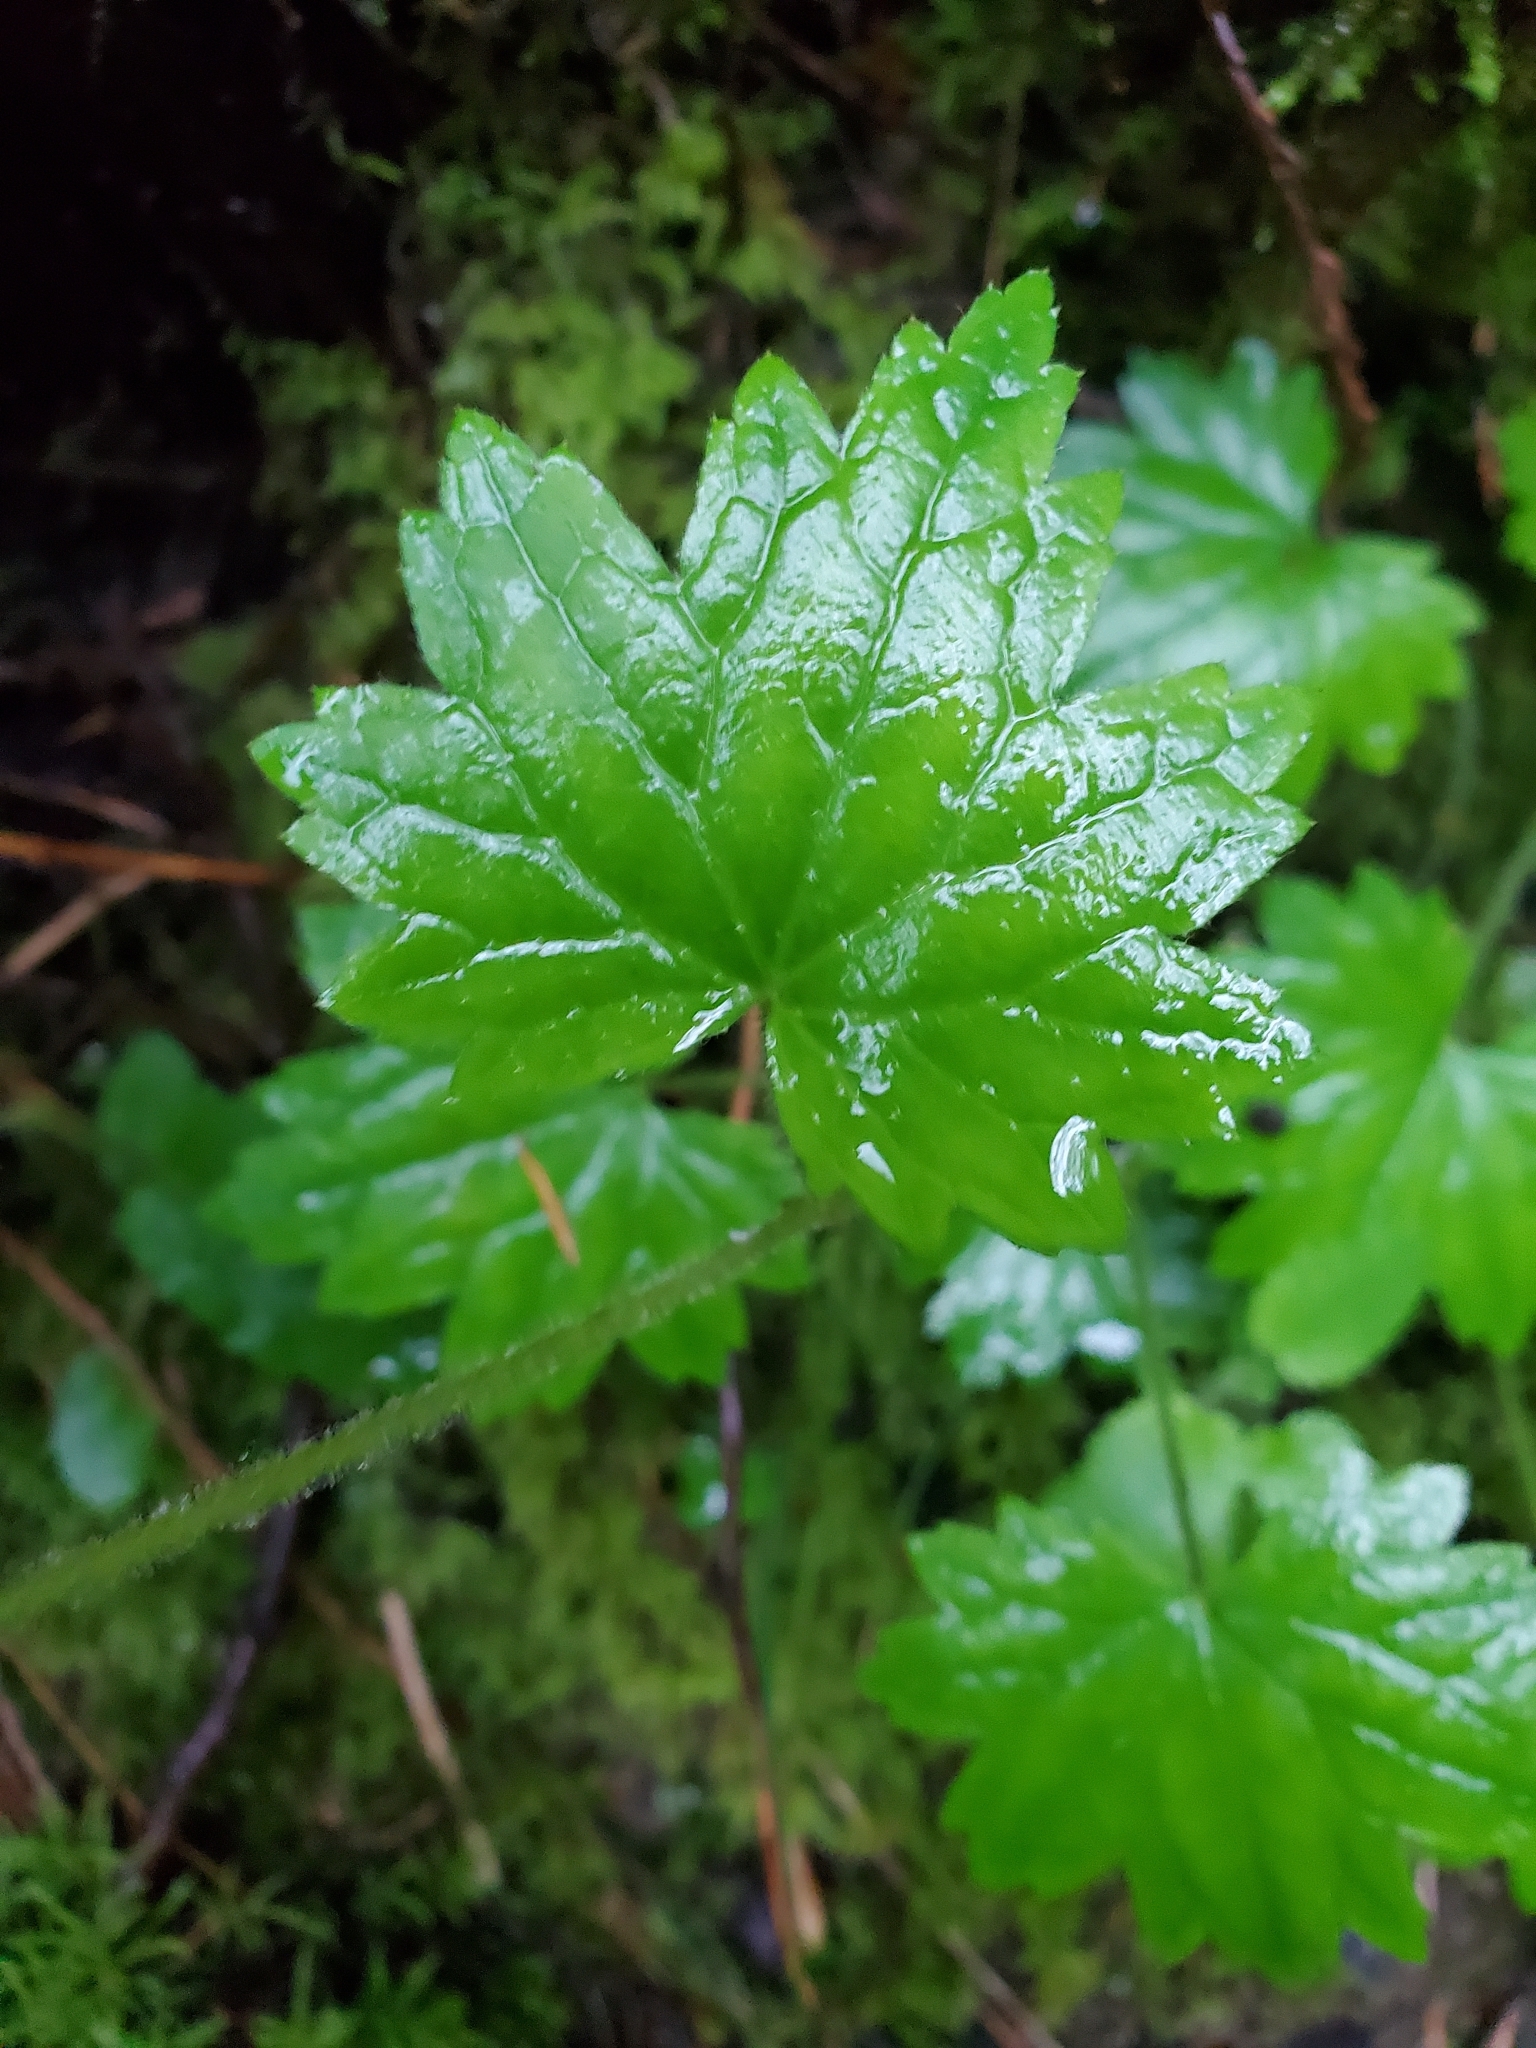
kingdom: Plantae
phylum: Tracheophyta
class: Magnoliopsida
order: Saxifragales
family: Saxifragaceae
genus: Boykinia
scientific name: Boykinia occidentalis
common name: Coast boykinia
